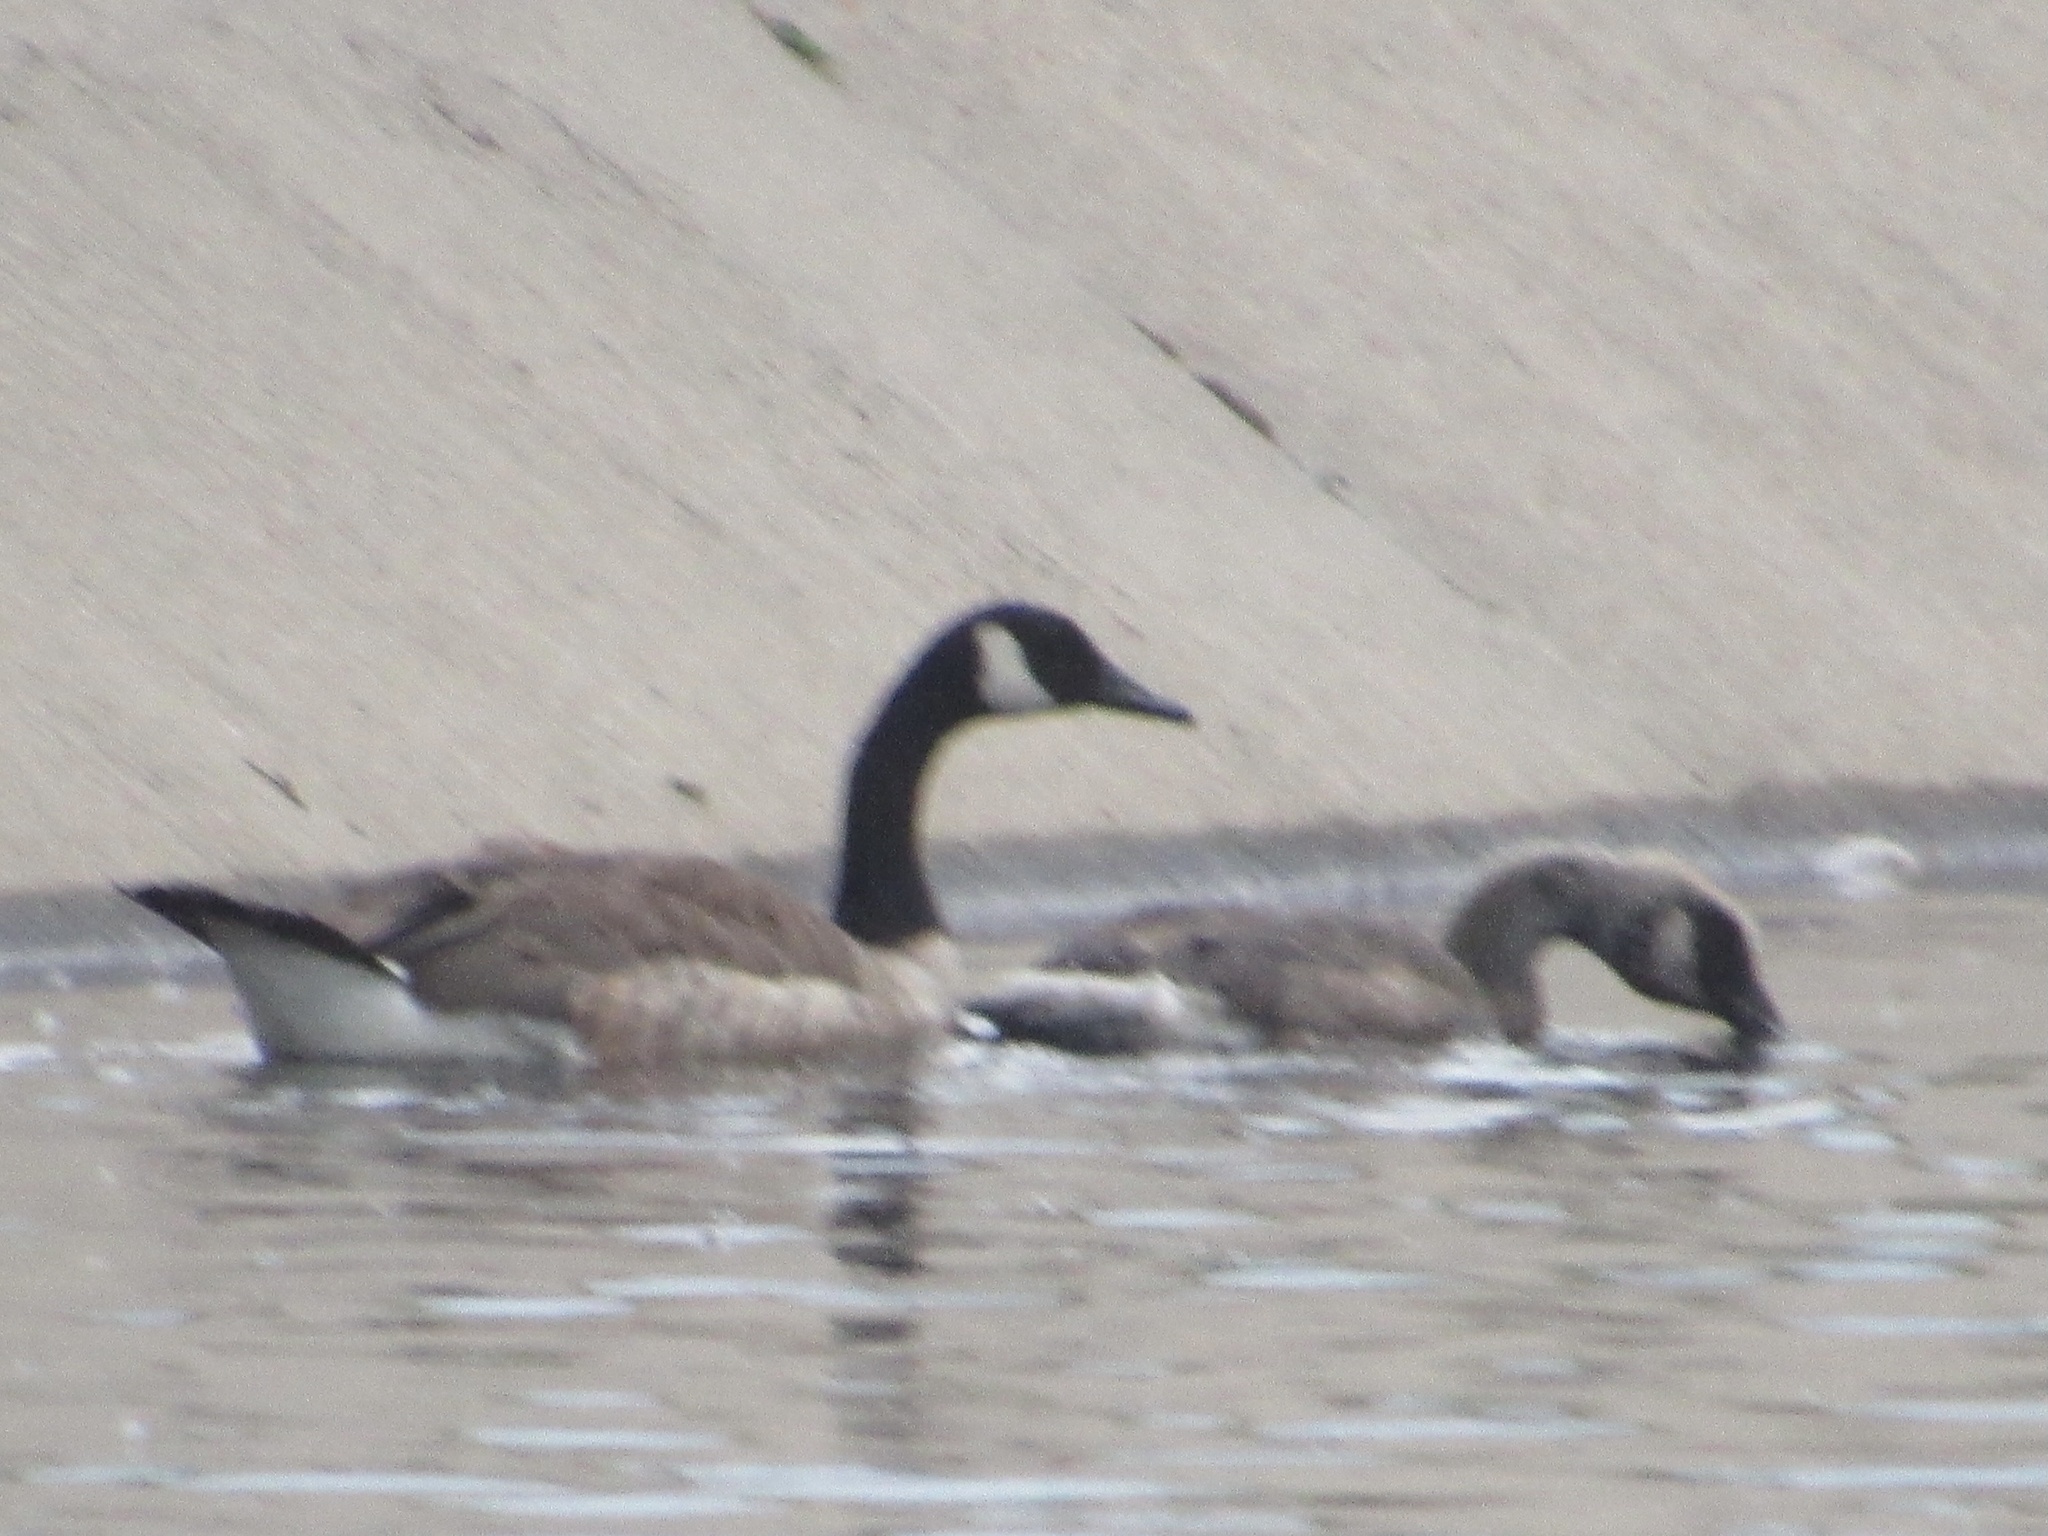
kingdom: Animalia
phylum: Chordata
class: Aves
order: Anseriformes
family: Anatidae
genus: Branta
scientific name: Branta canadensis
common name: Canada goose
